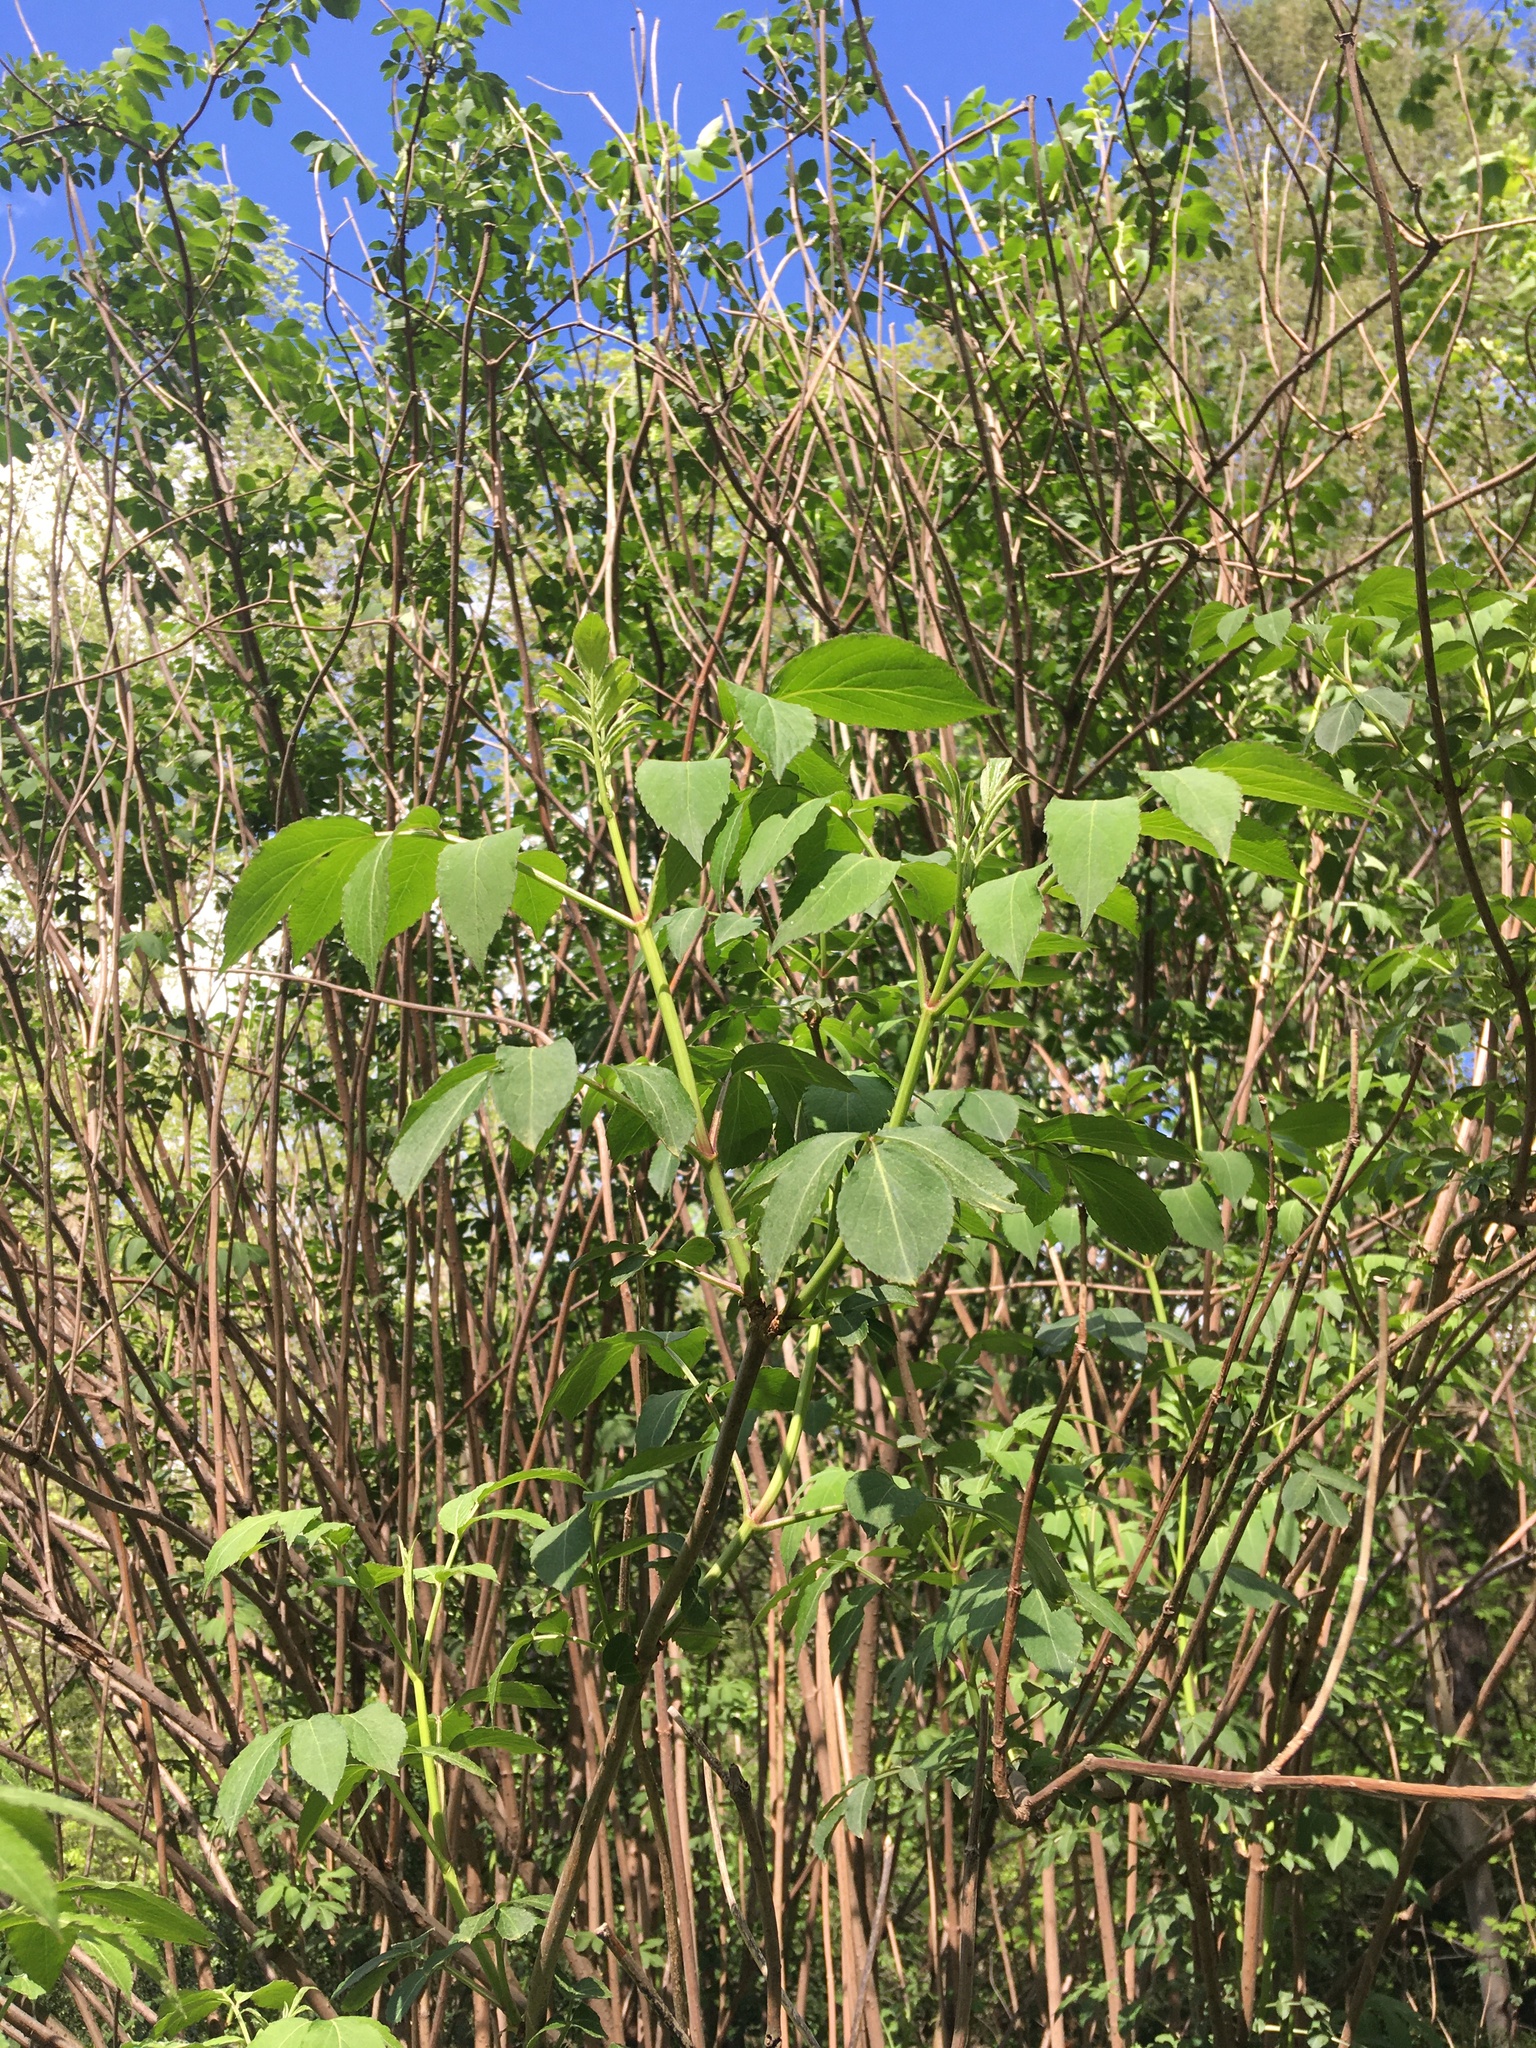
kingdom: Plantae
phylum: Tracheophyta
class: Magnoliopsida
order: Dipsacales
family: Viburnaceae
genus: Sambucus
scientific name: Sambucus canadensis
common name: American elder
